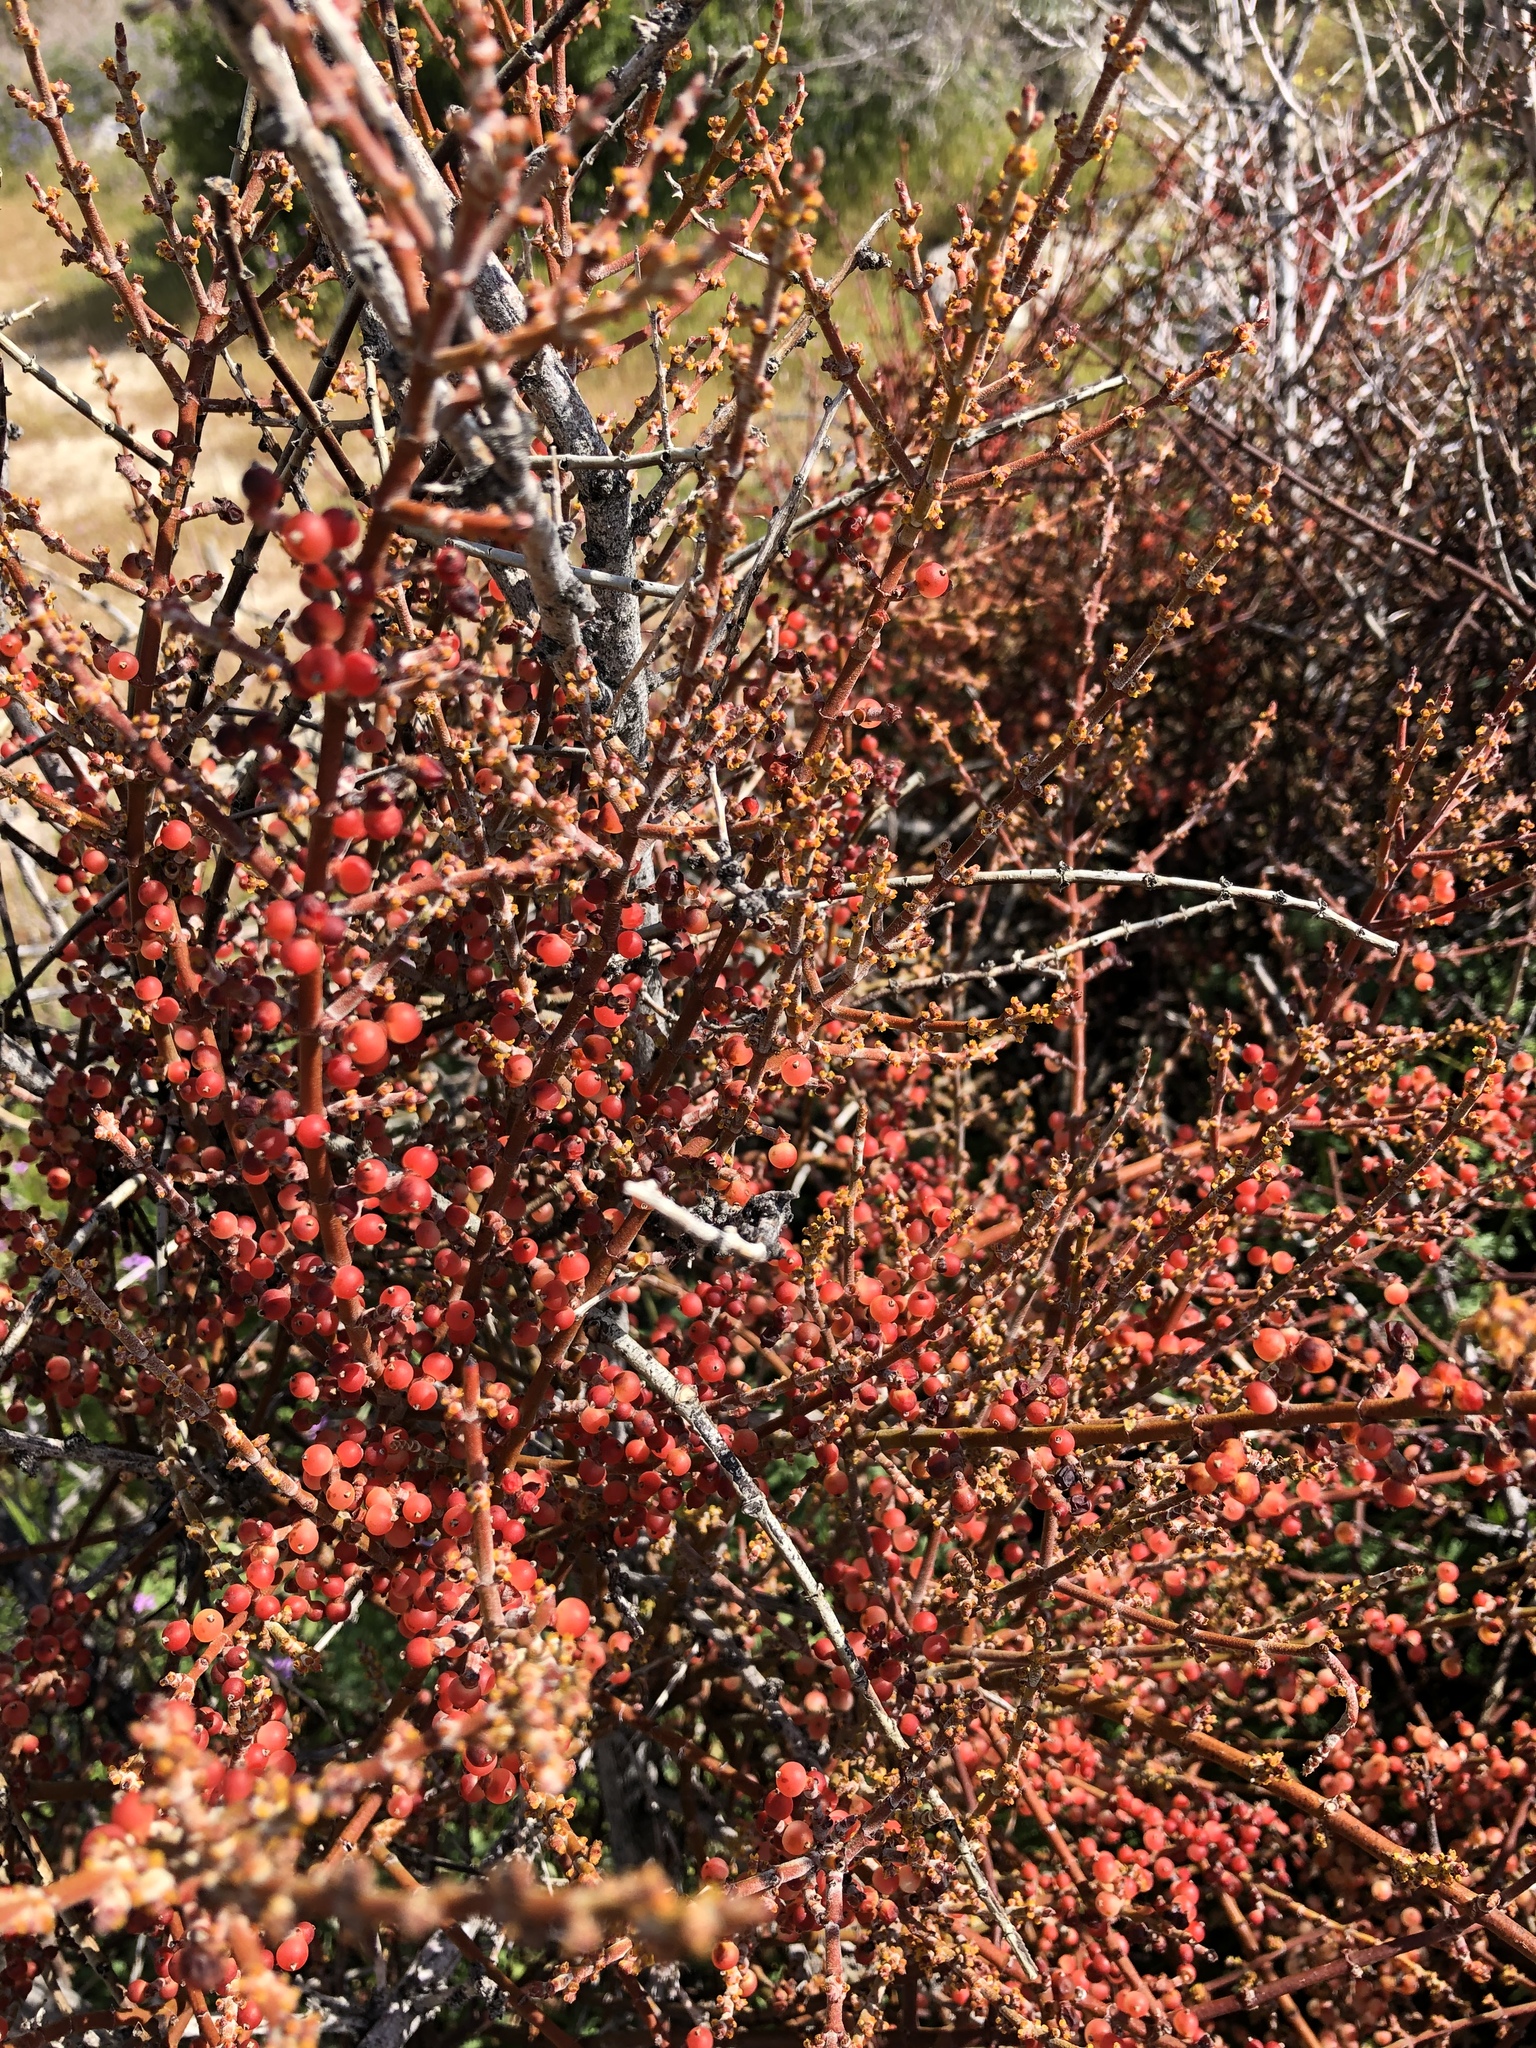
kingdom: Plantae
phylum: Tracheophyta
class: Magnoliopsida
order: Santalales
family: Viscaceae
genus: Phoradendron
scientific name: Phoradendron californicum
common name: Acacia mistletoe
